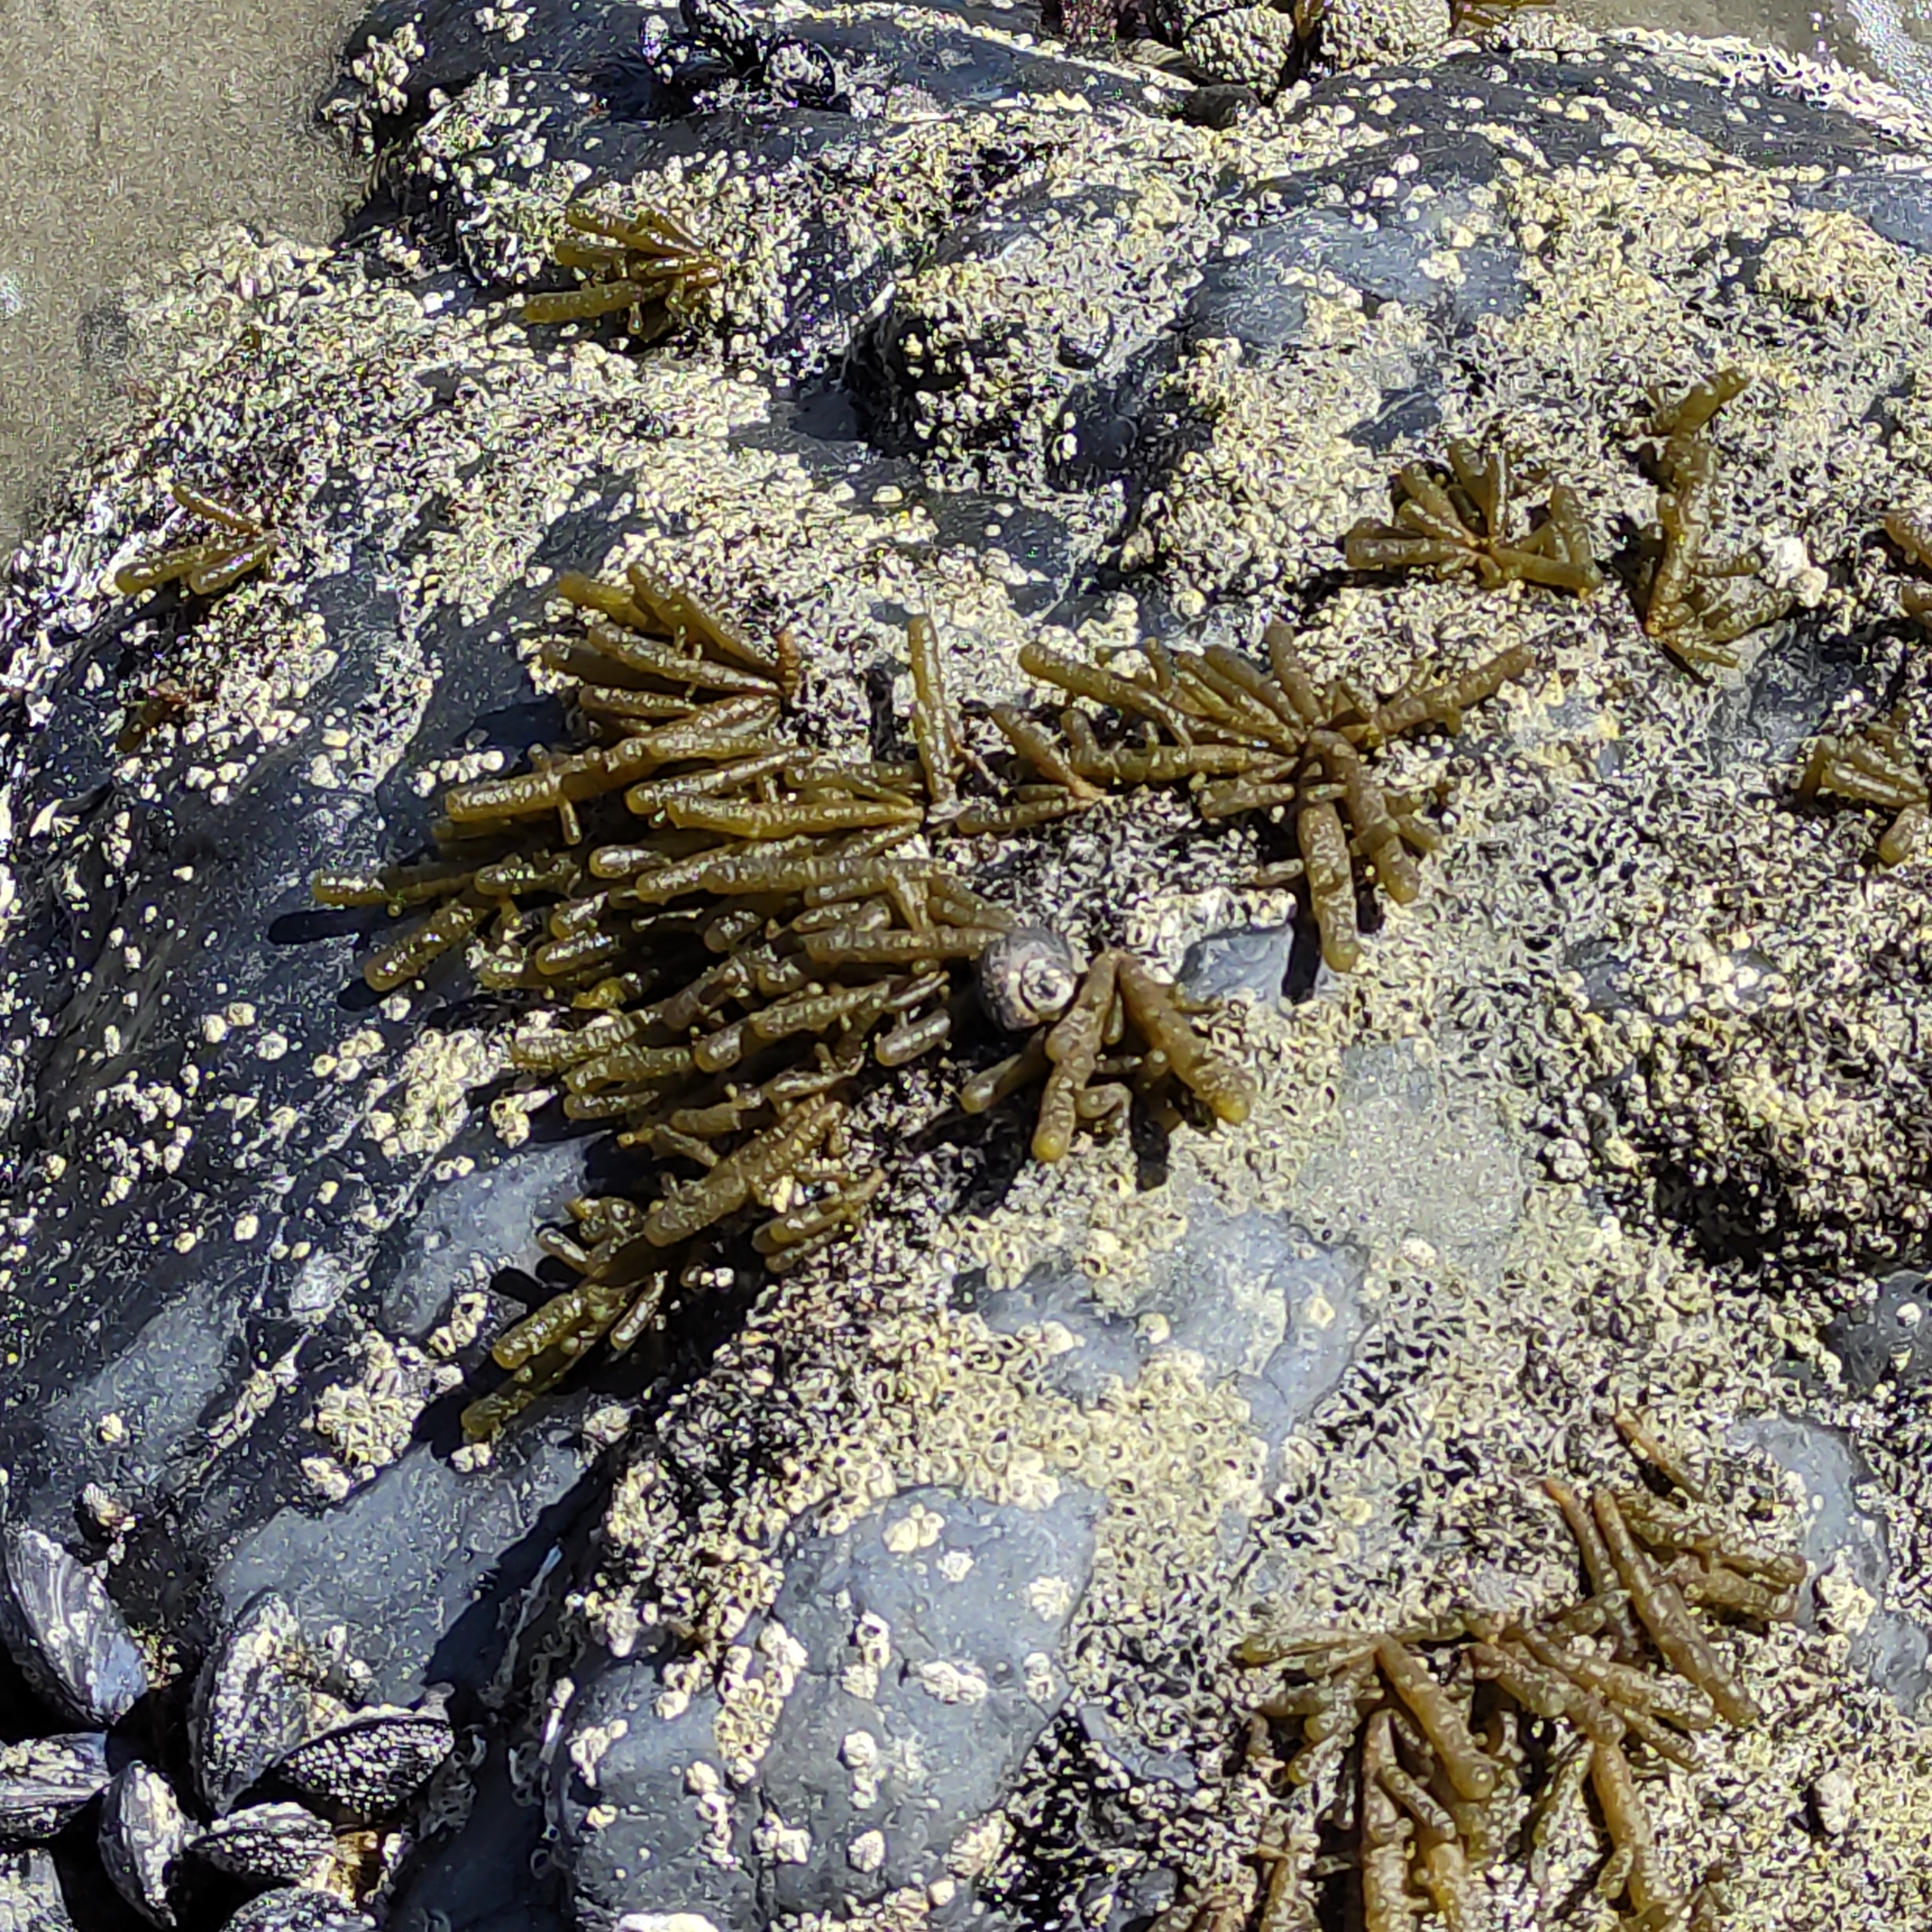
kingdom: Chromista
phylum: Ochrophyta
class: Phaeophyceae
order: Scytothamnales
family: Splachnidiaceae
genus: Splachnidium
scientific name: Splachnidium rugosum
